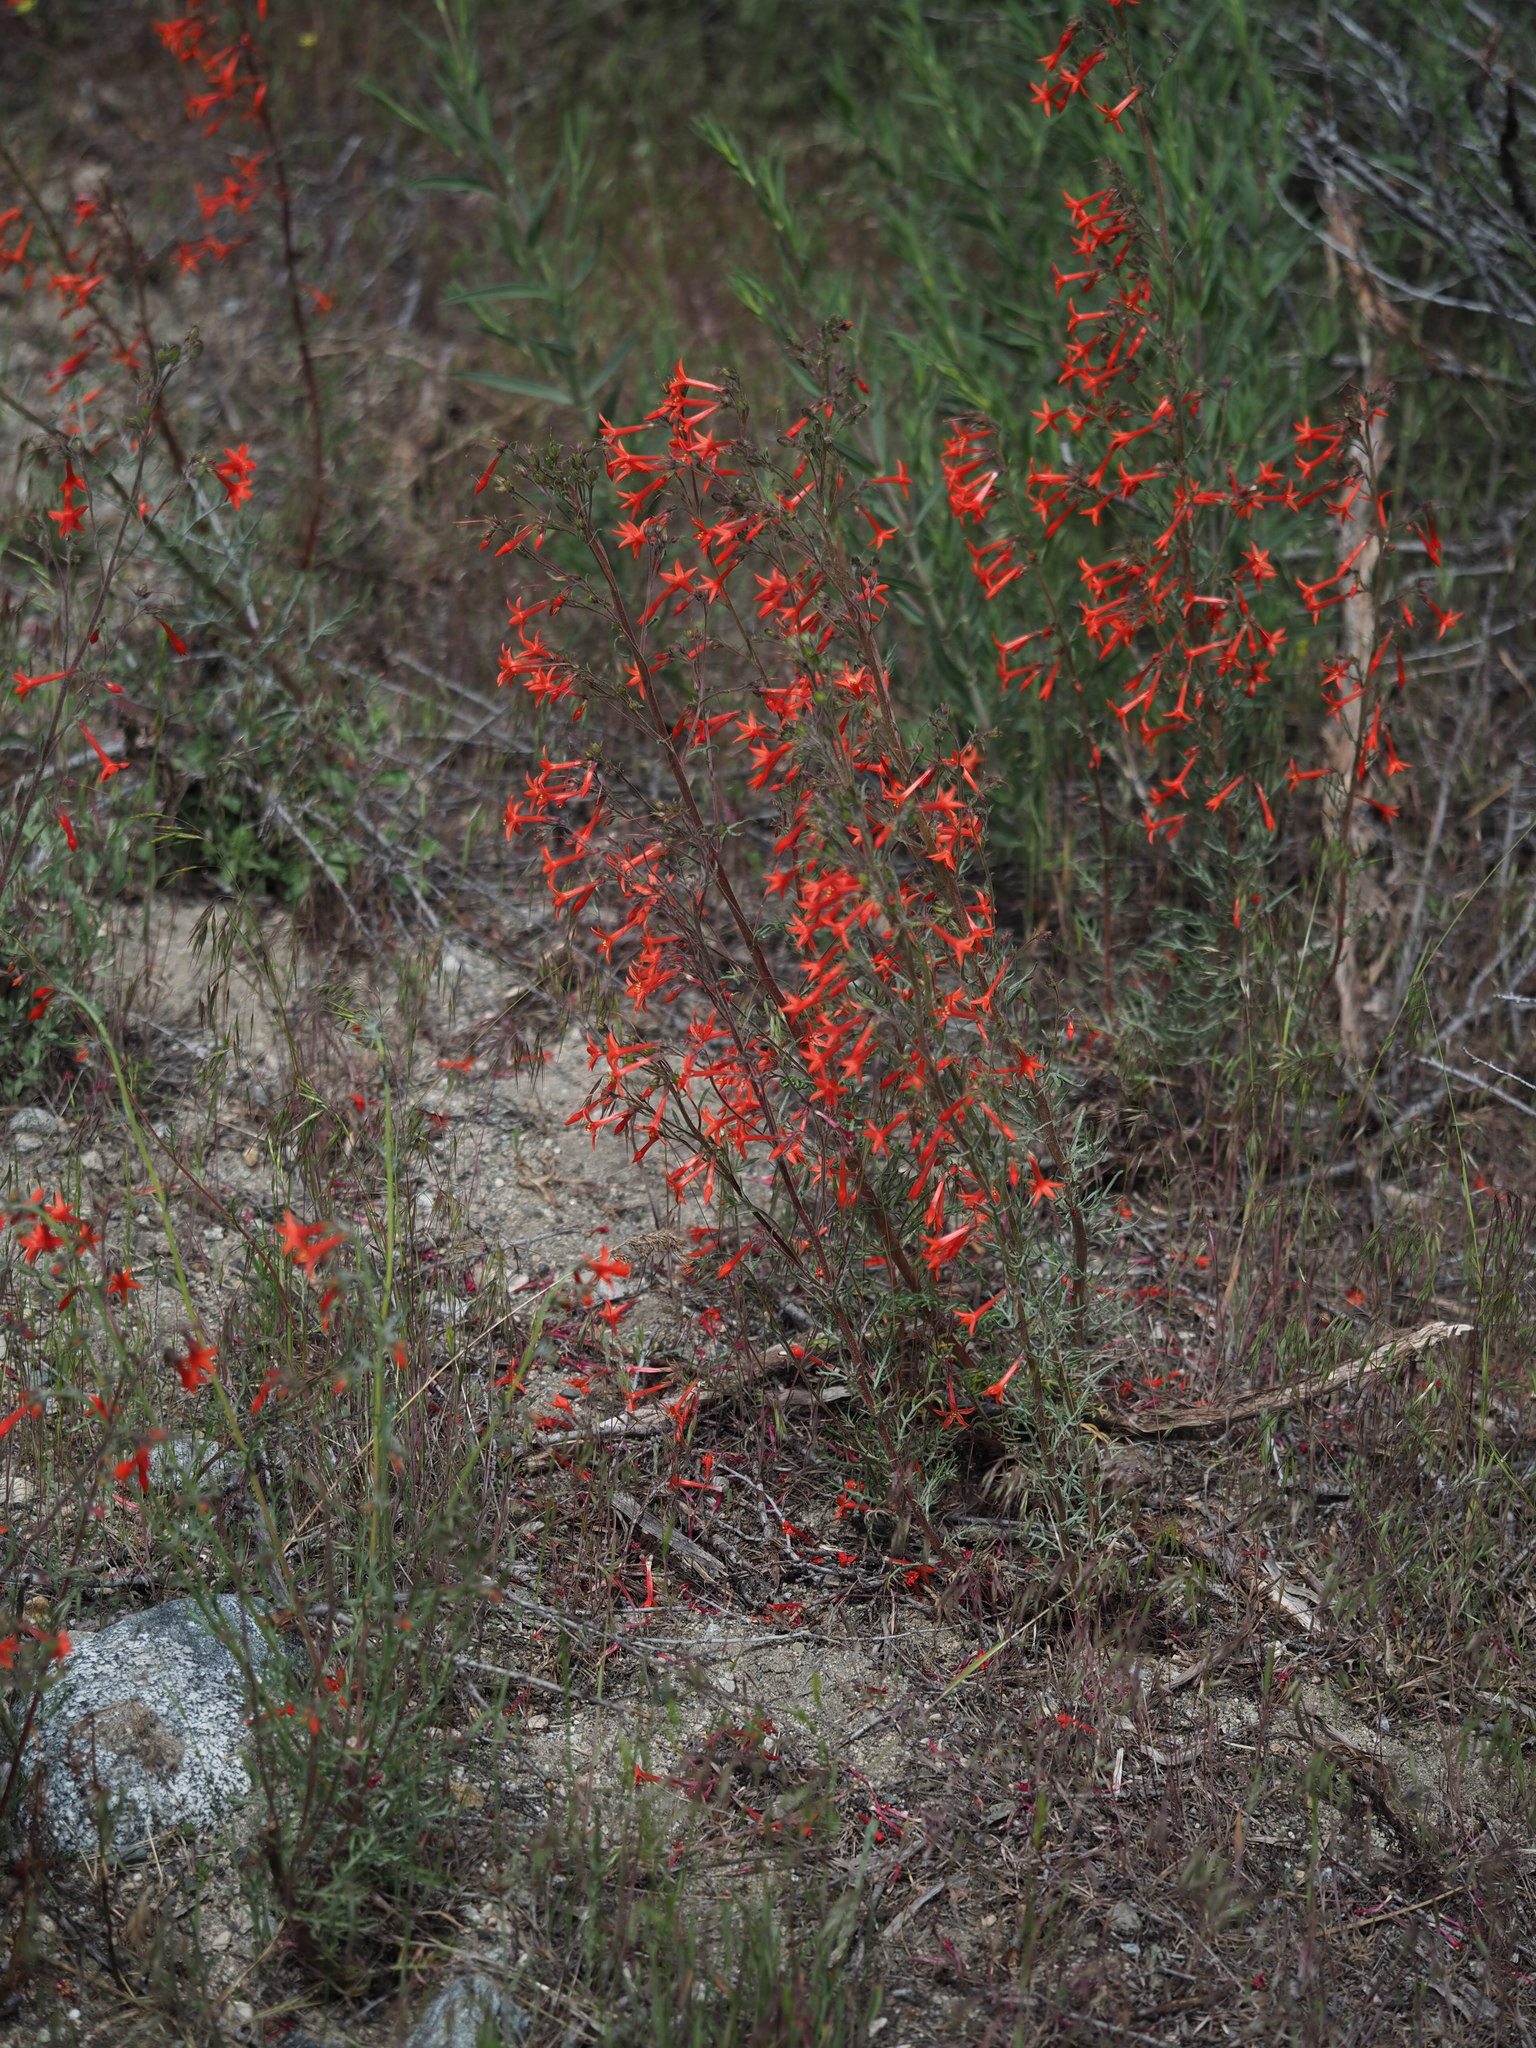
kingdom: Plantae
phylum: Tracheophyta
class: Magnoliopsida
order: Ericales
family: Polemoniaceae
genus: Ipomopsis
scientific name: Ipomopsis aggregata
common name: Scarlet gilia
